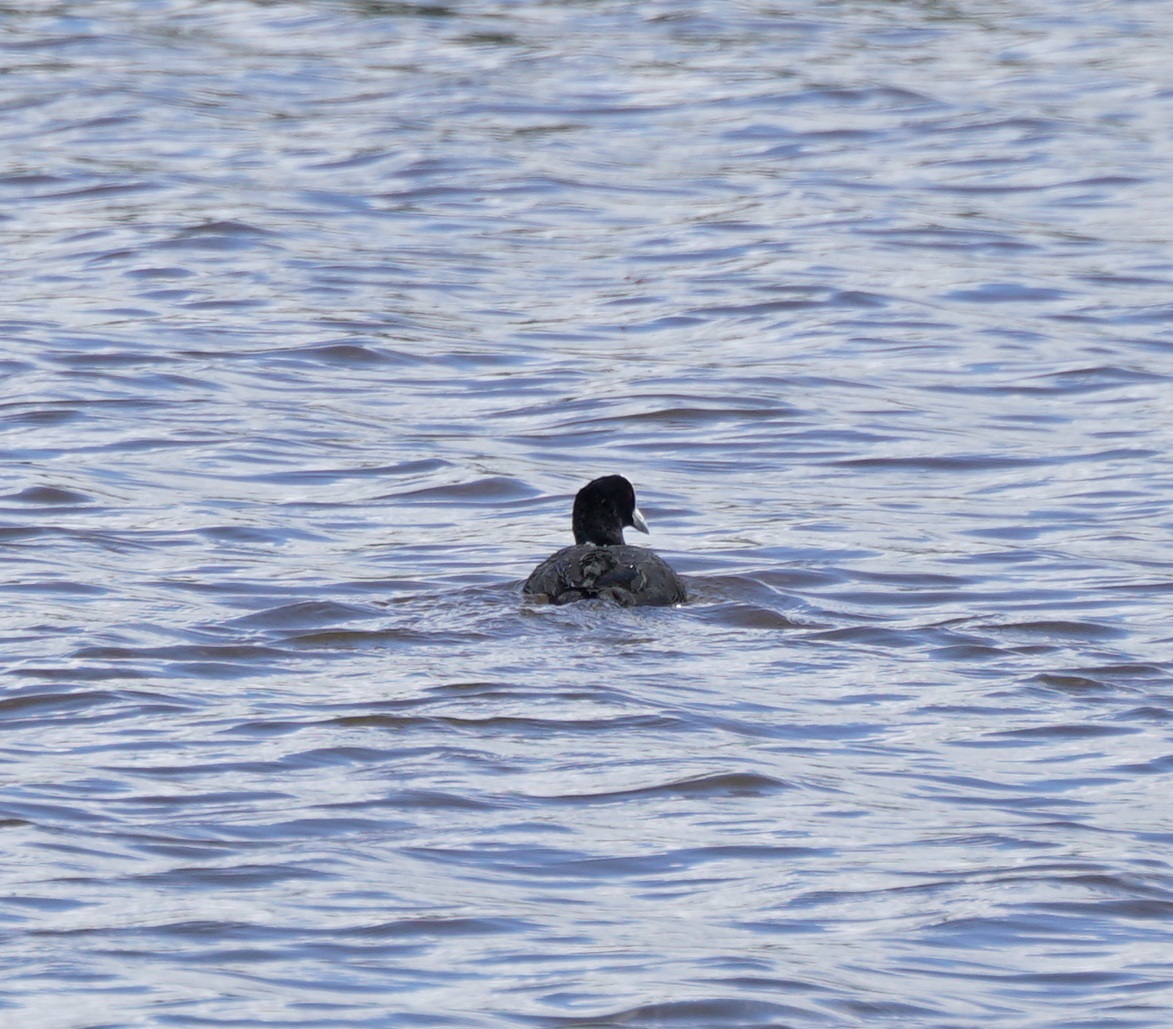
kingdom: Animalia
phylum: Chordata
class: Aves
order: Gruiformes
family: Rallidae
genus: Fulica
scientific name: Fulica atra
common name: Eurasian coot
